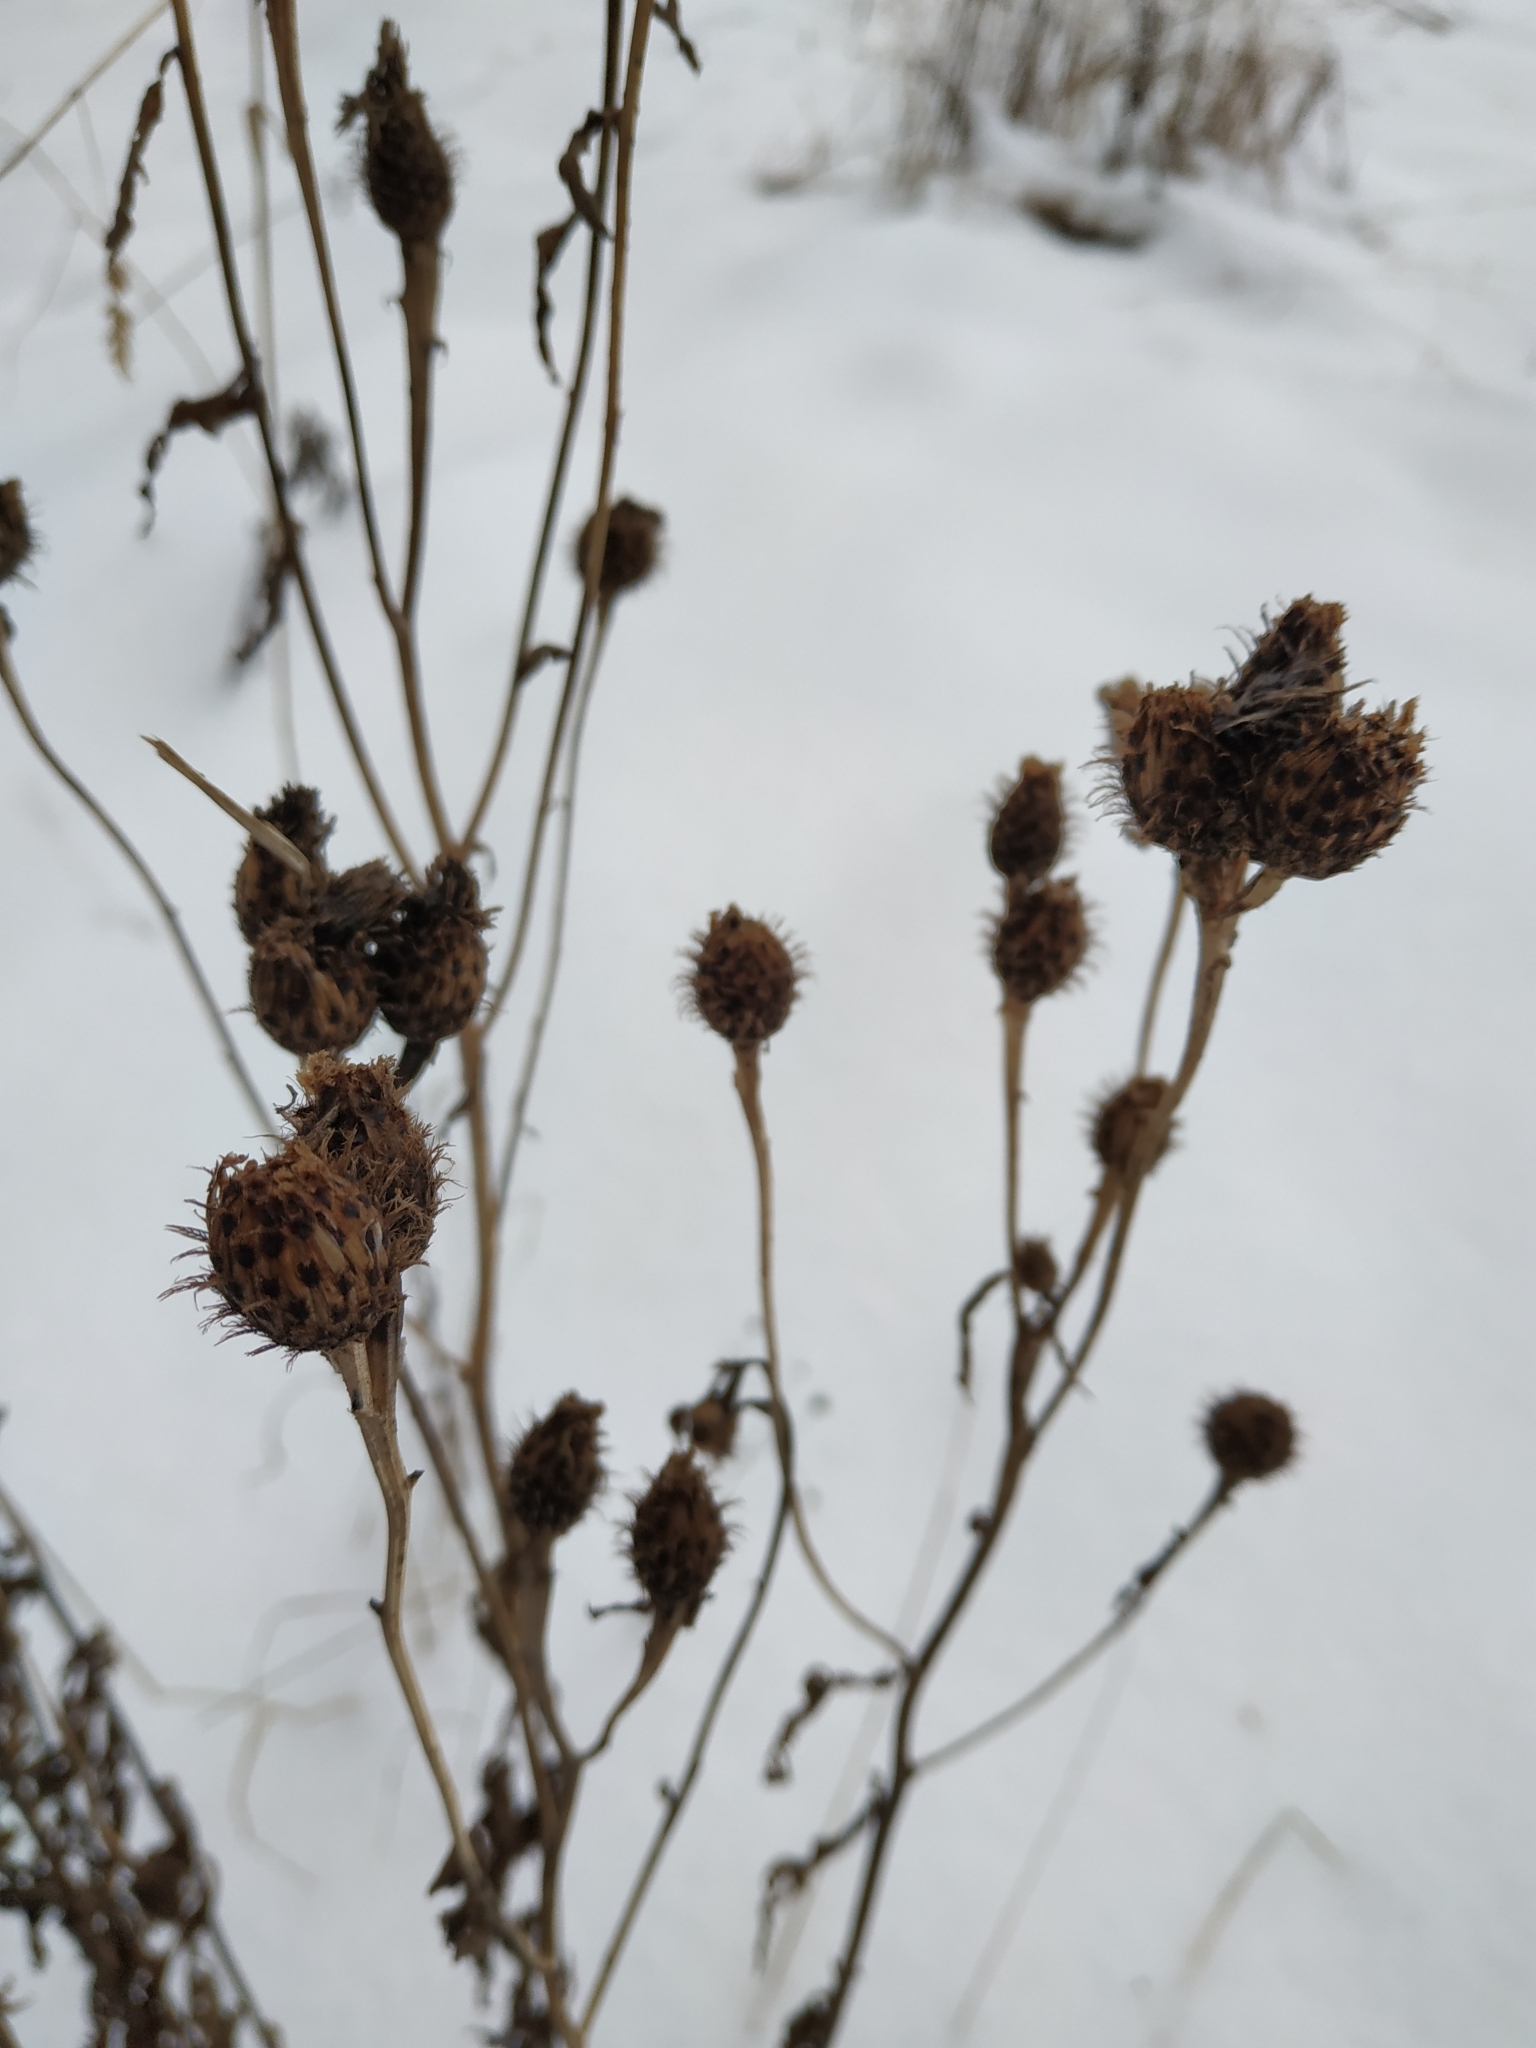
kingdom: Plantae
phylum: Tracheophyta
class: Magnoliopsida
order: Asterales
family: Asteraceae
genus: Centaurea
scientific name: Centaurea phrygia
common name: Wig knapweed
